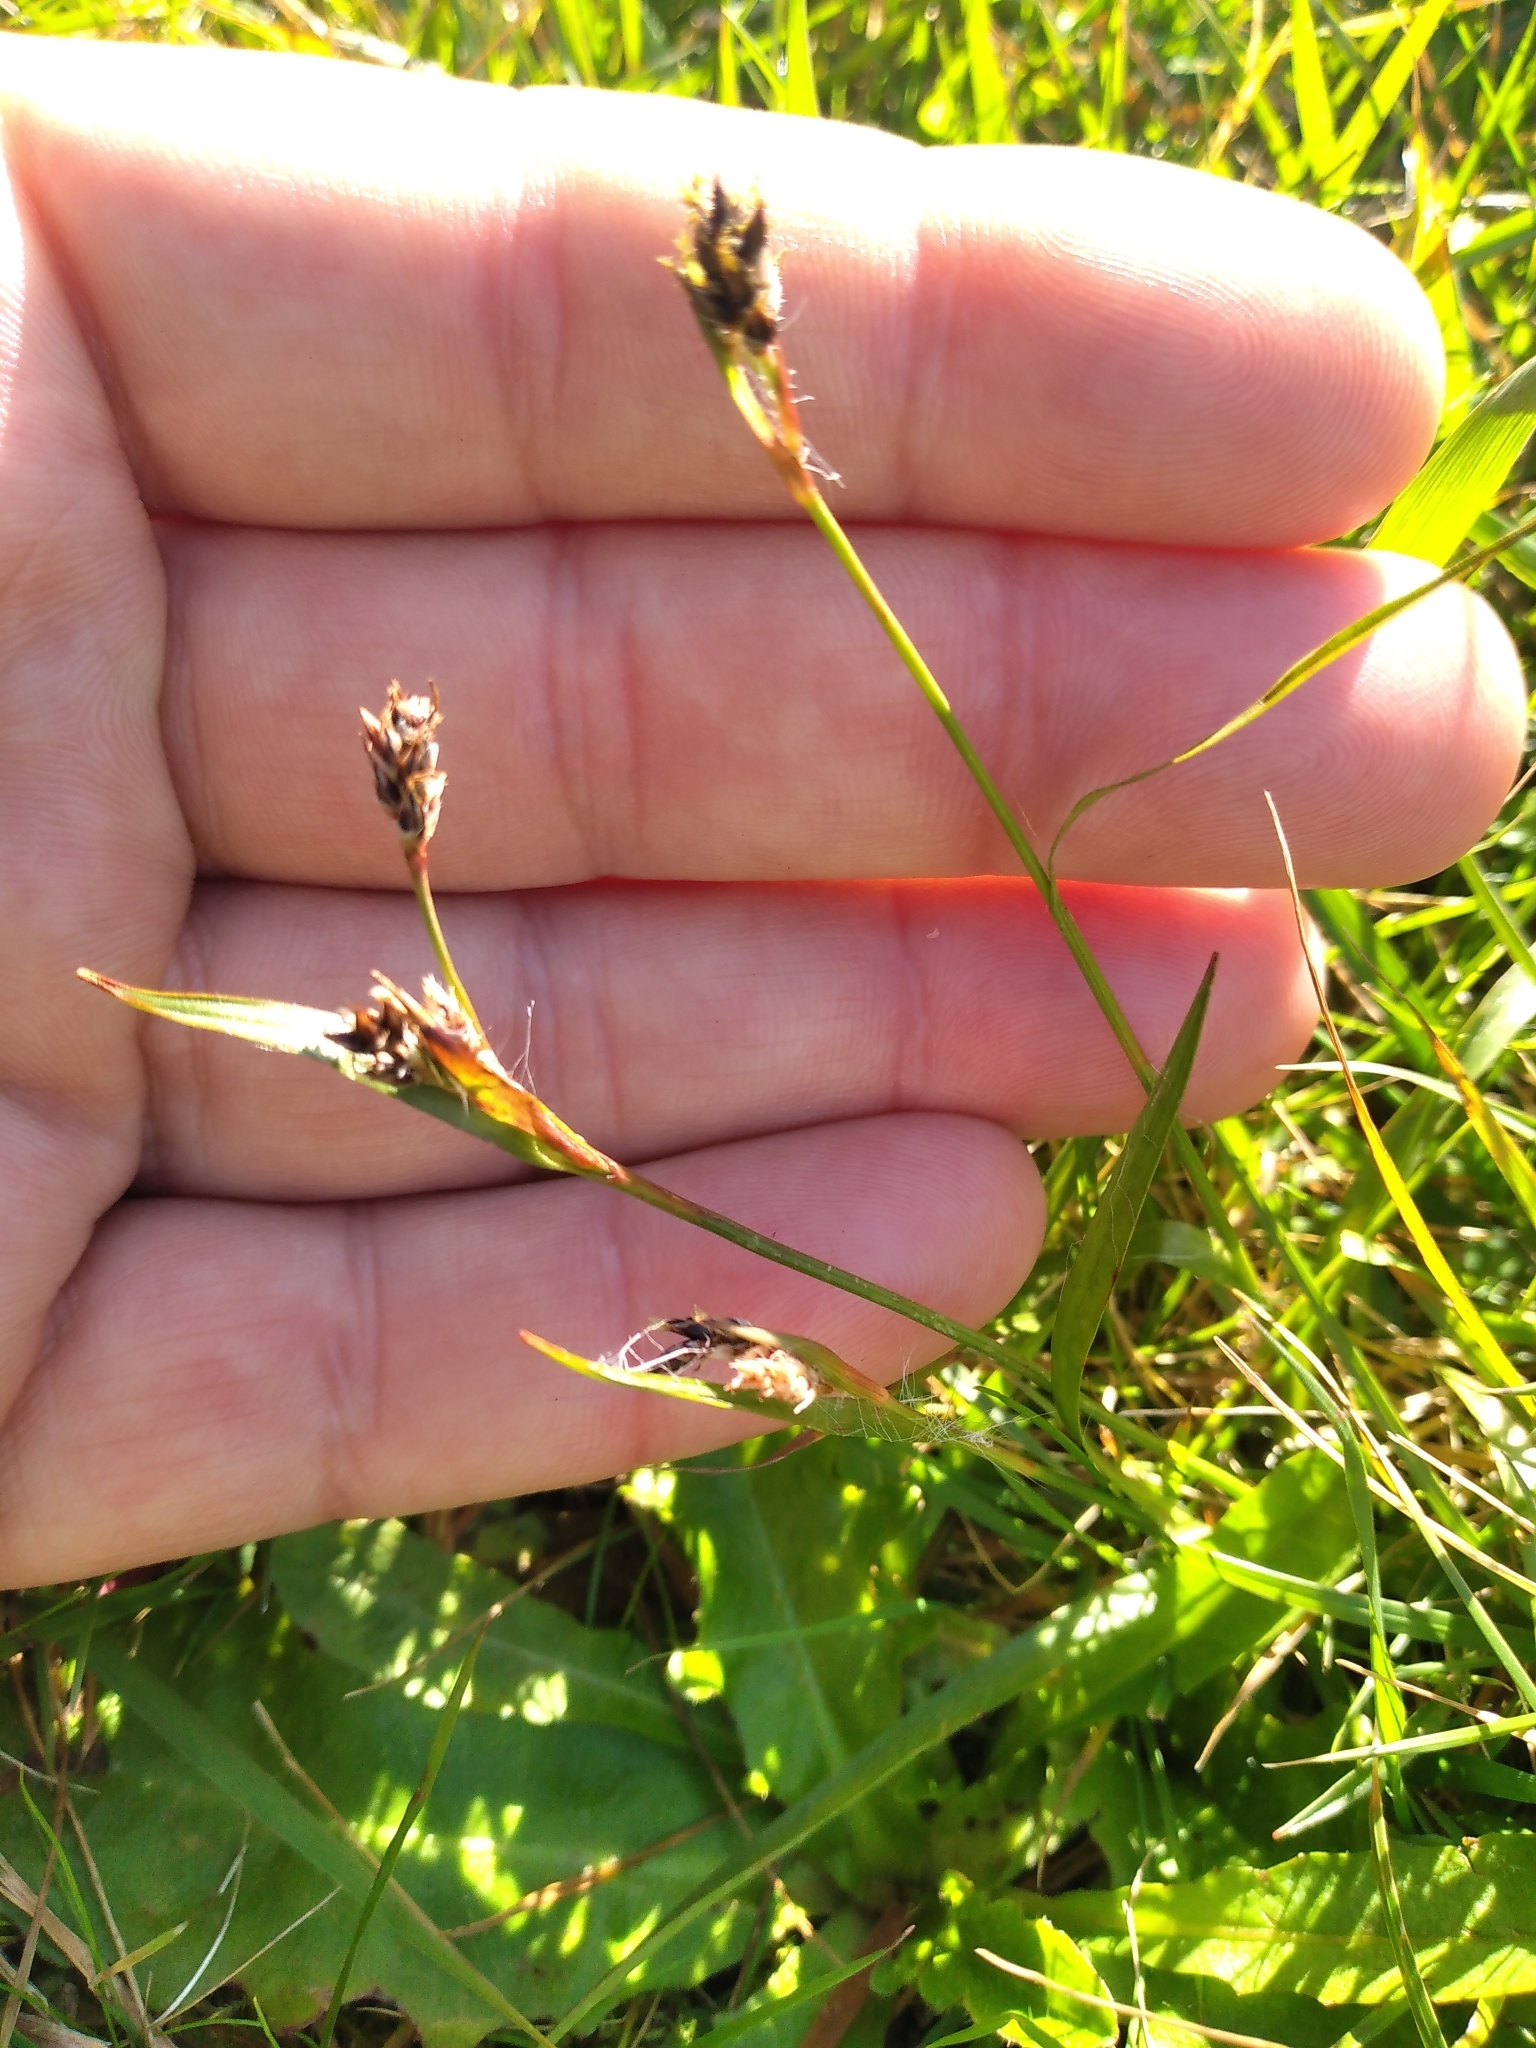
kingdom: Plantae
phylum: Tracheophyta
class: Liliopsida
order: Poales
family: Juncaceae
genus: Luzula
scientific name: Luzula campestris
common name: Field wood-rush
